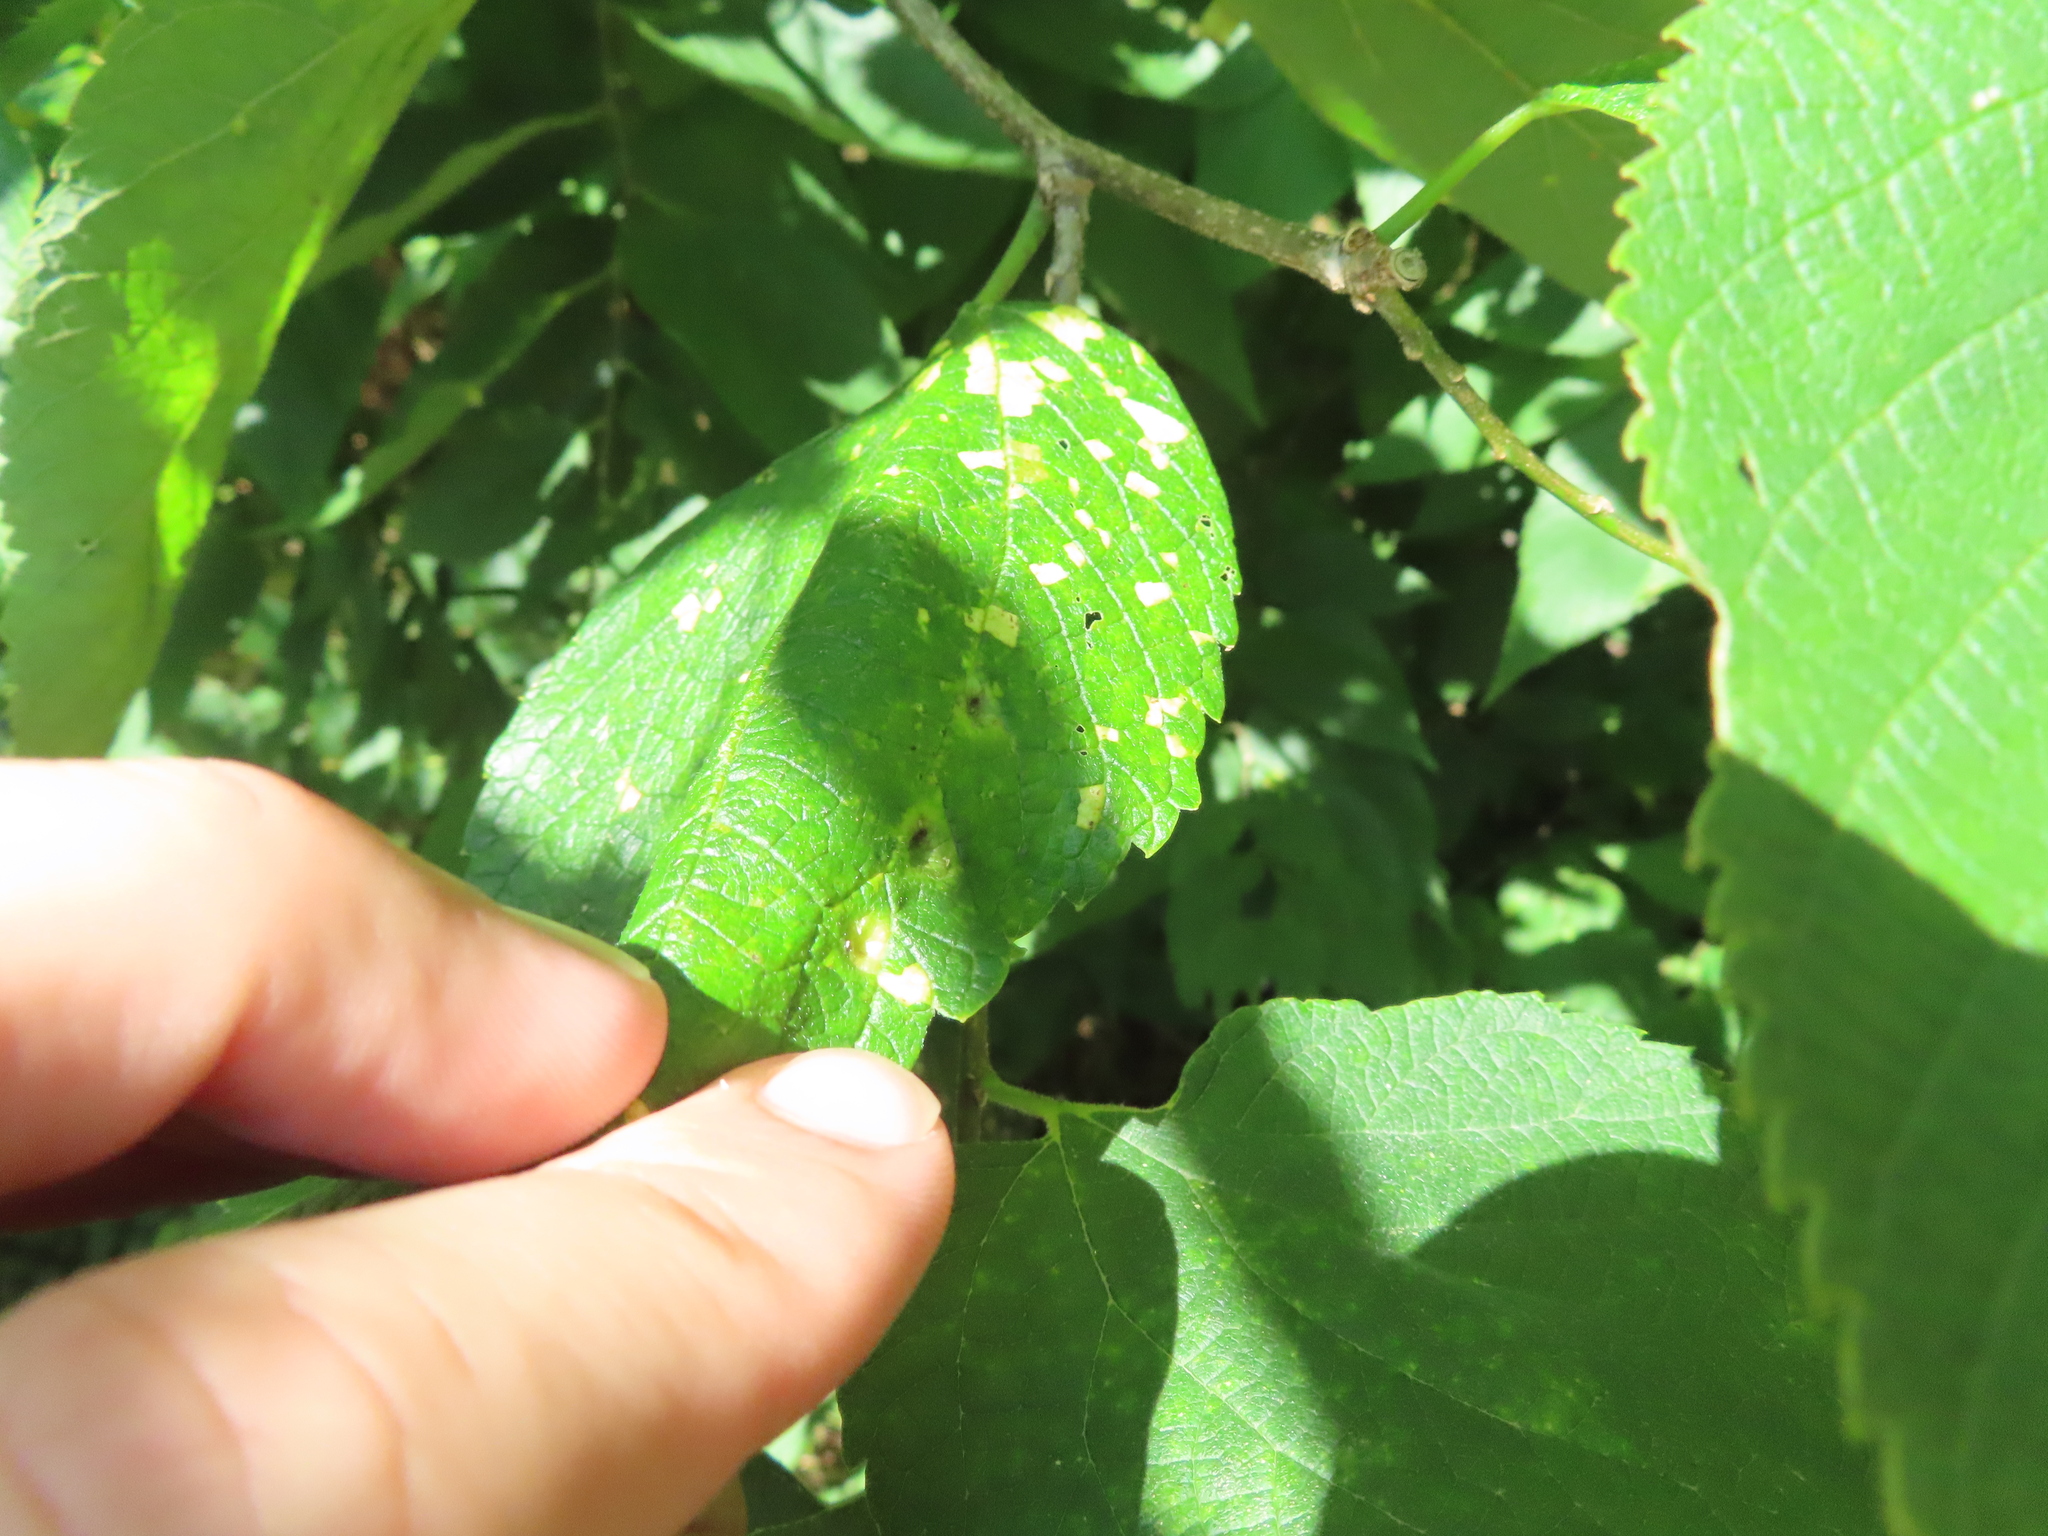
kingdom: Animalia
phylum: Arthropoda
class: Insecta
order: Hemiptera
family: Aphalaridae
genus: Pachypsylla
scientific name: Pachypsylla celtidismamma
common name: Hackberry nipplegall psyllid
